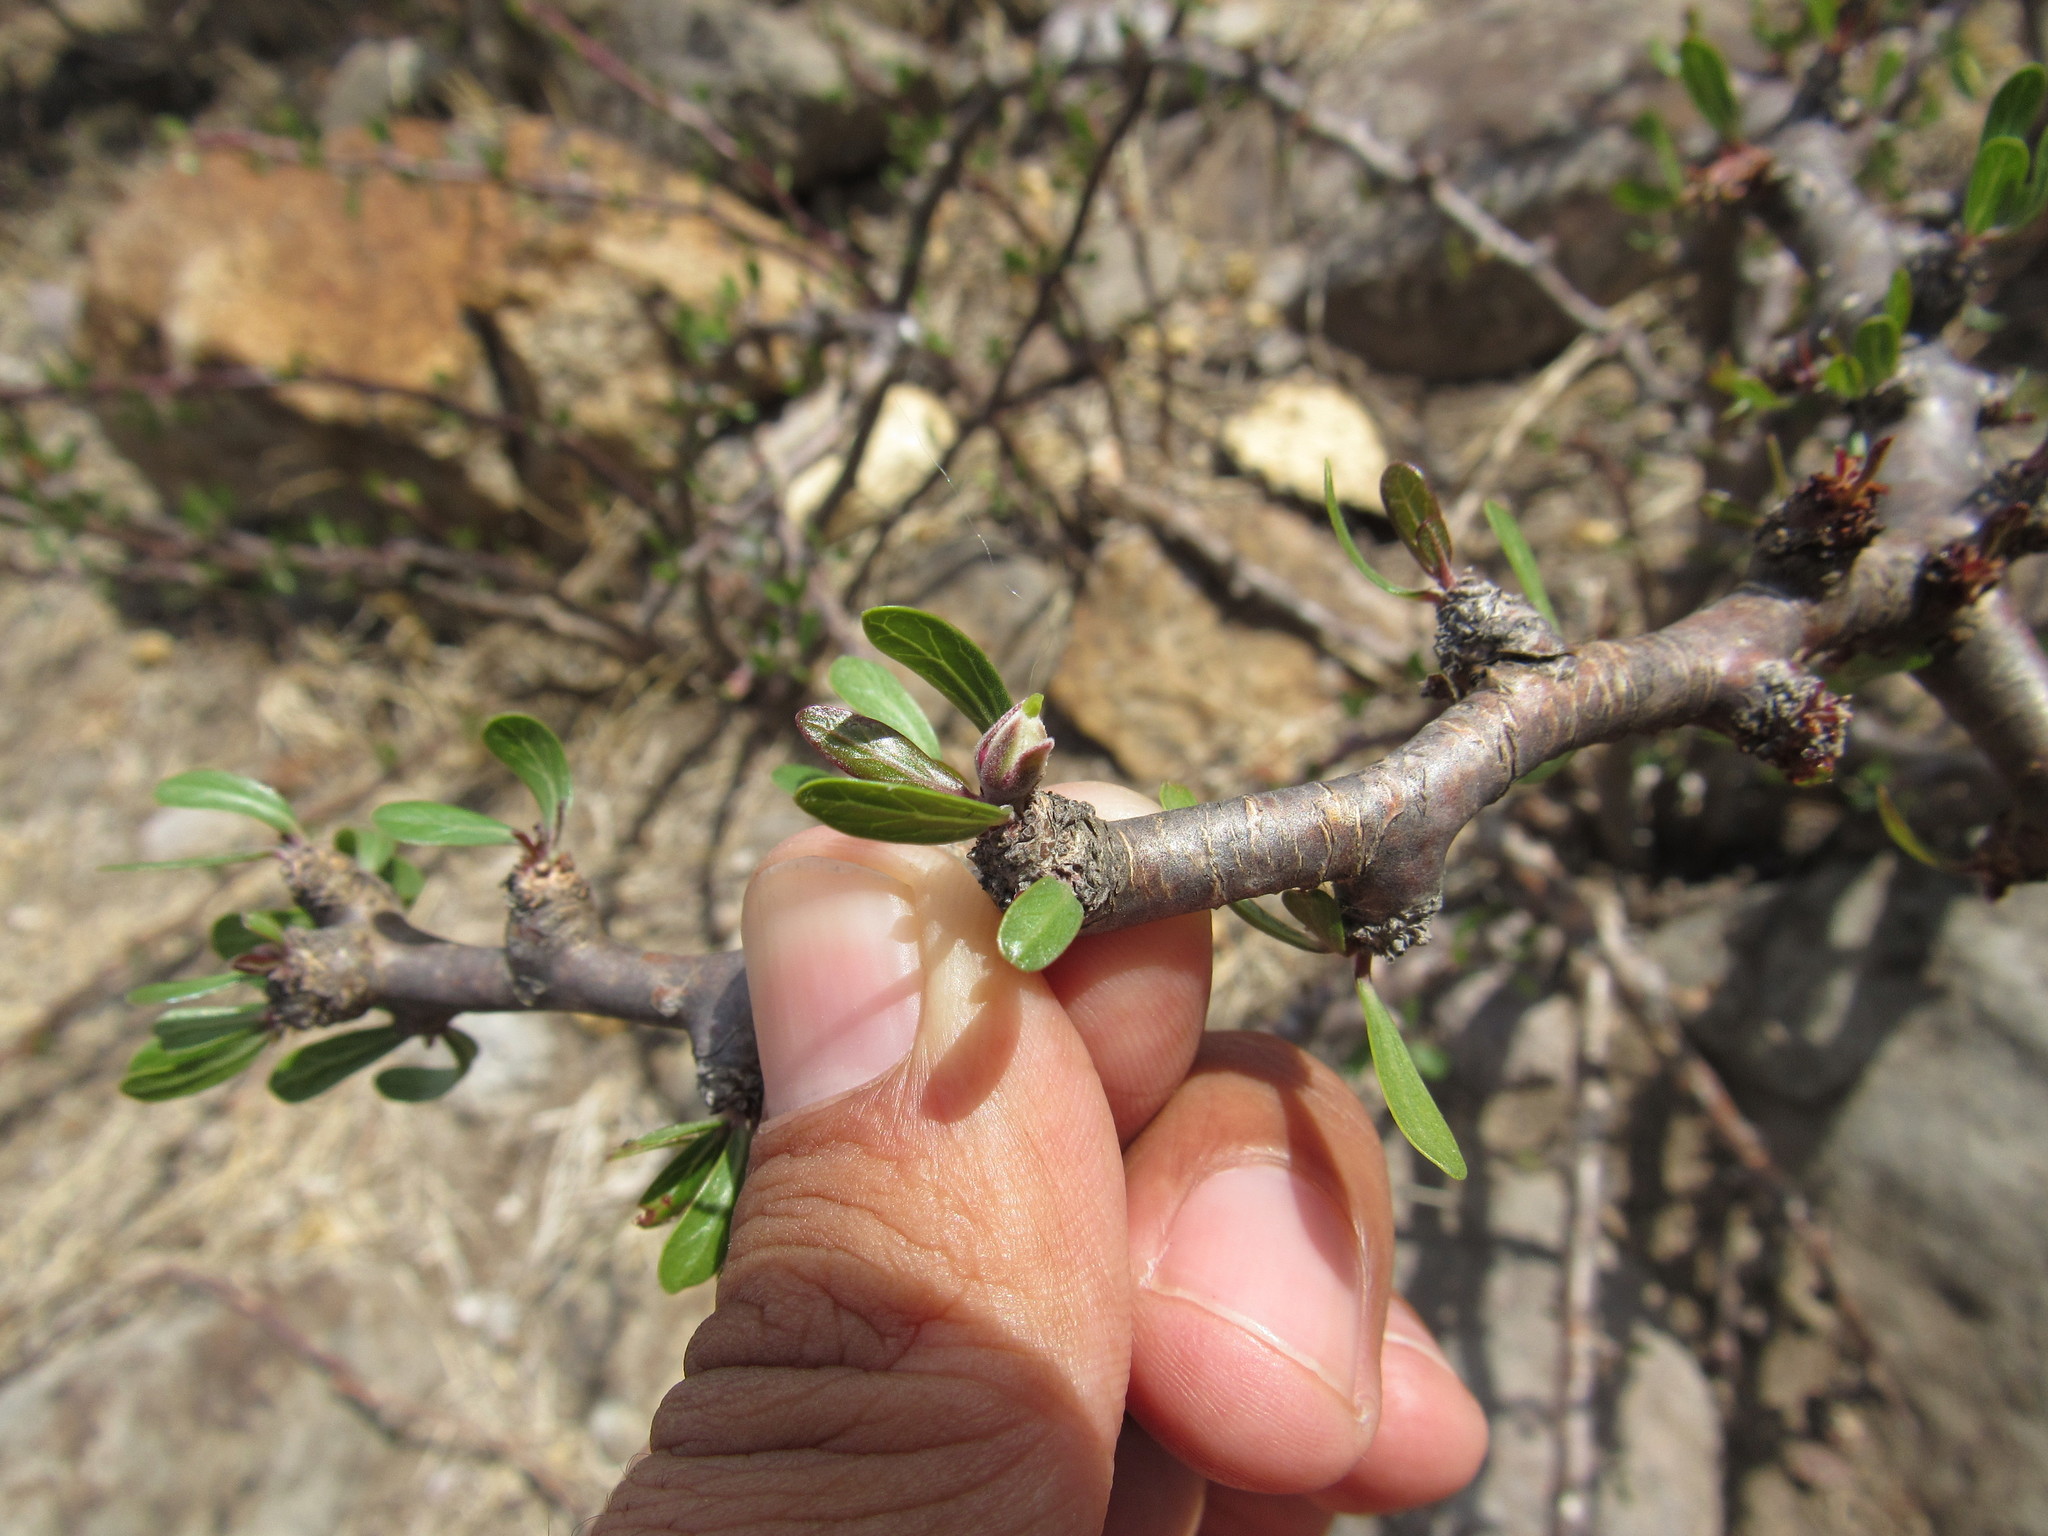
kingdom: Plantae
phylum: Tracheophyta
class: Magnoliopsida
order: Malpighiales
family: Euphorbiaceae
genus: Jatropha
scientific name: Jatropha dioica
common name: Leatherstem
